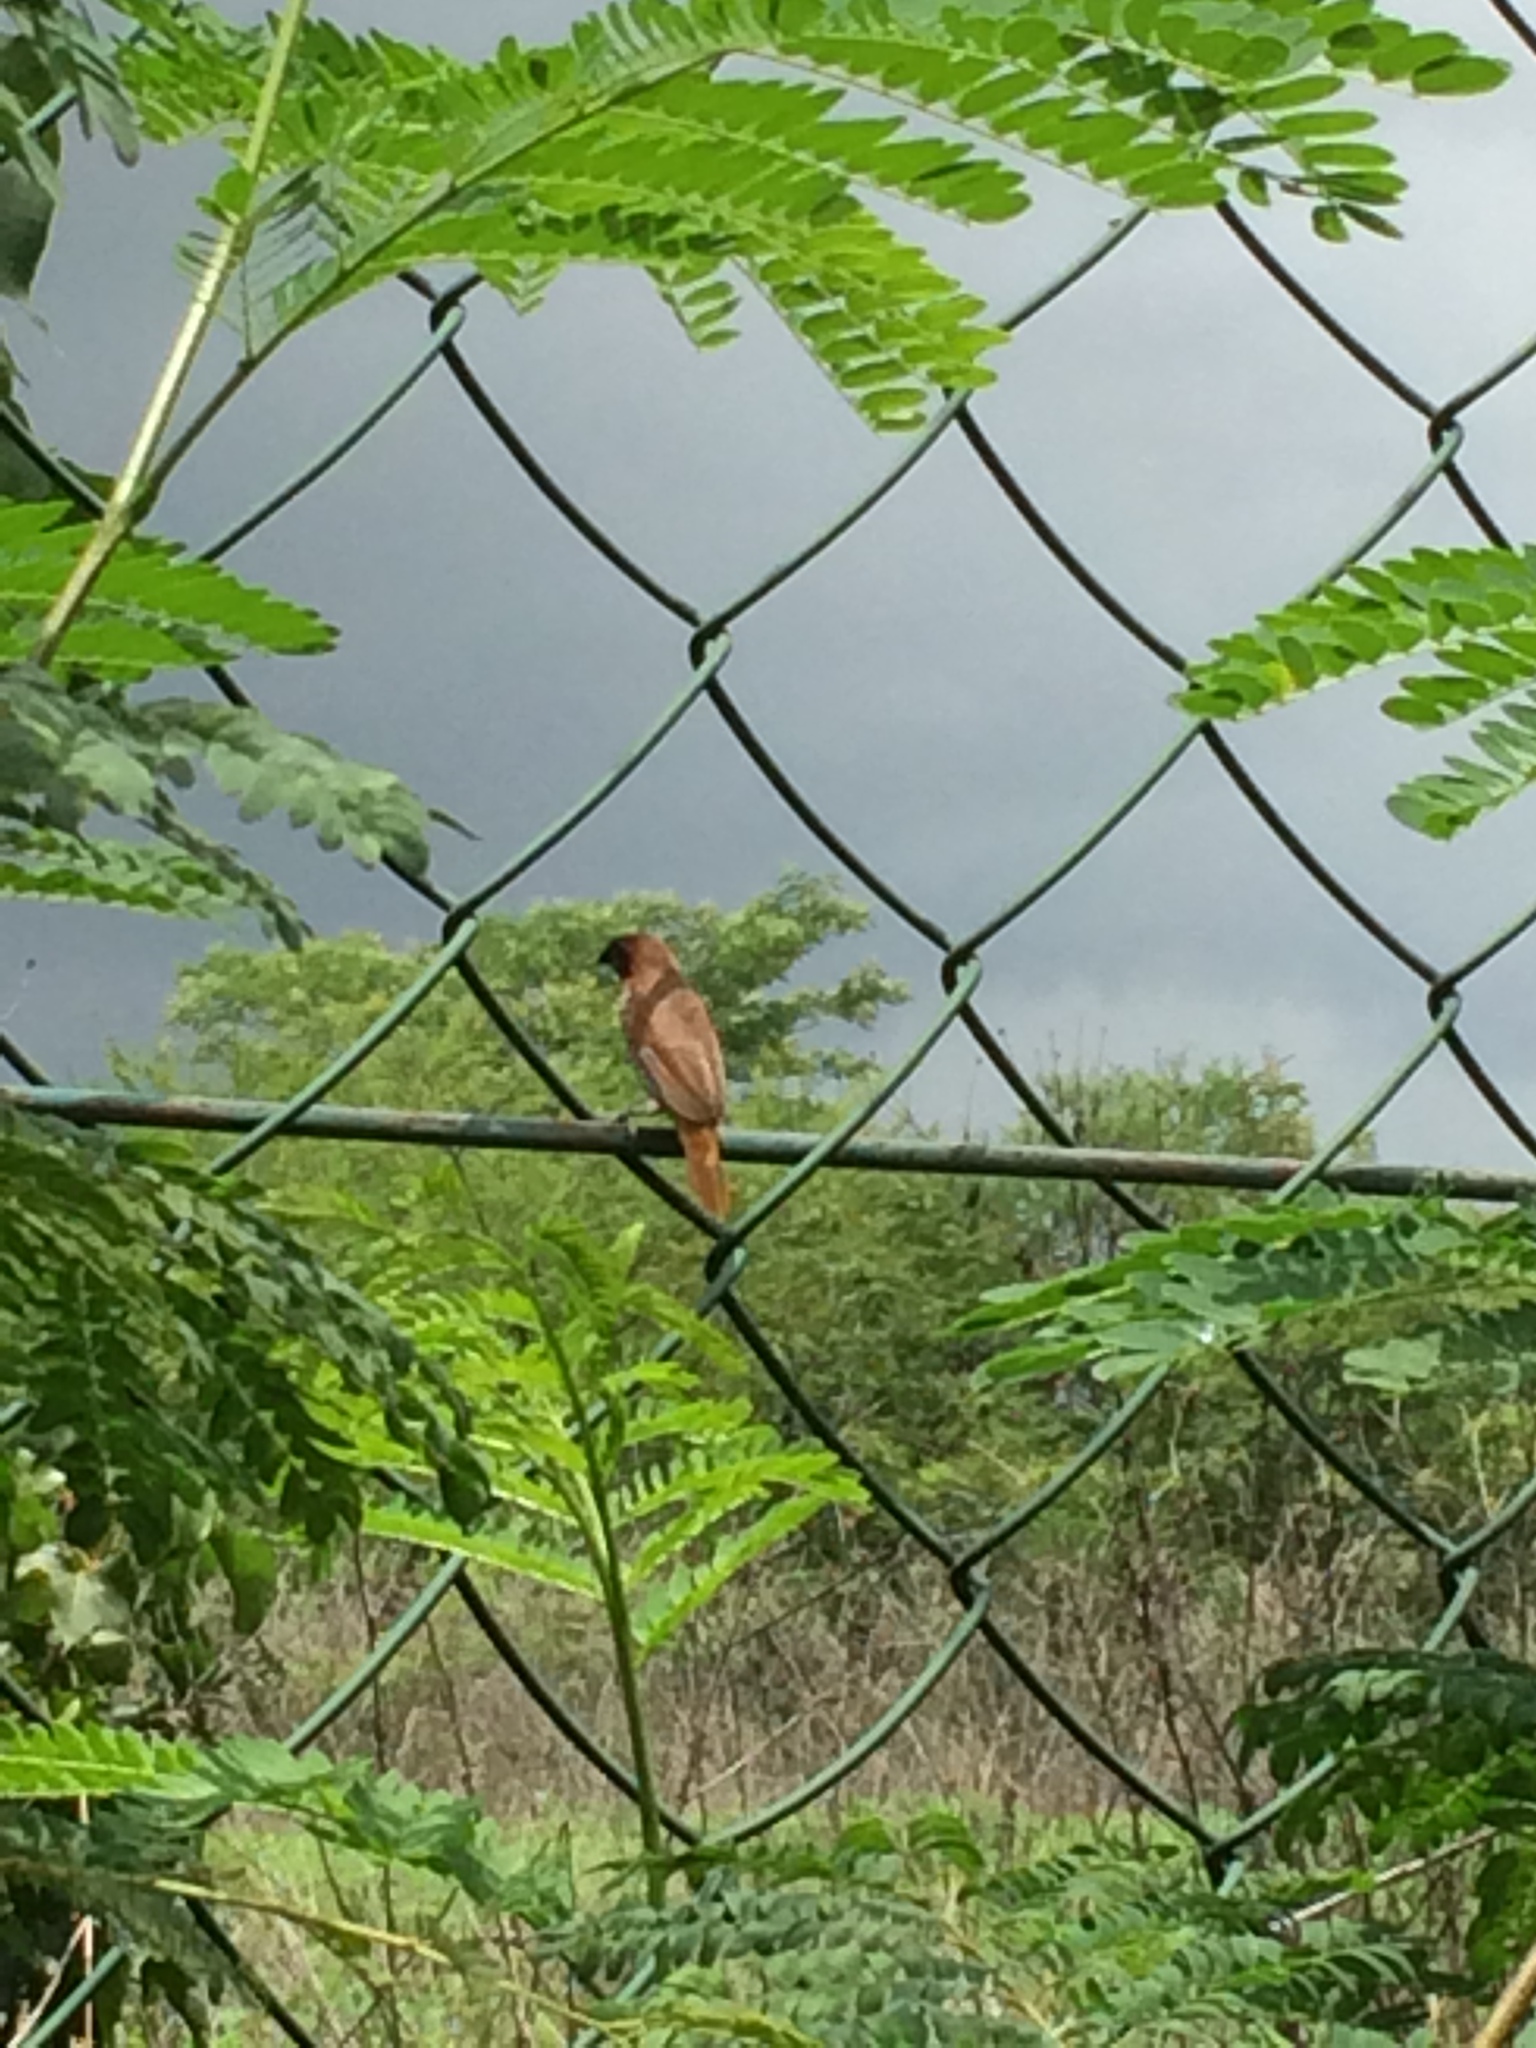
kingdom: Animalia
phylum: Chordata
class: Aves
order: Passeriformes
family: Estrildidae
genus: Lonchura
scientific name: Lonchura punctulata
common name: Scaly-breasted munia
